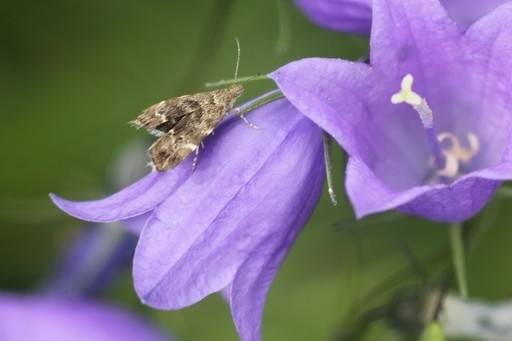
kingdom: Animalia
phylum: Arthropoda
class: Insecta
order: Lepidoptera
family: Choreutidae
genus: Anthophila
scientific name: Anthophila fabriciana
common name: Nettle-tap
